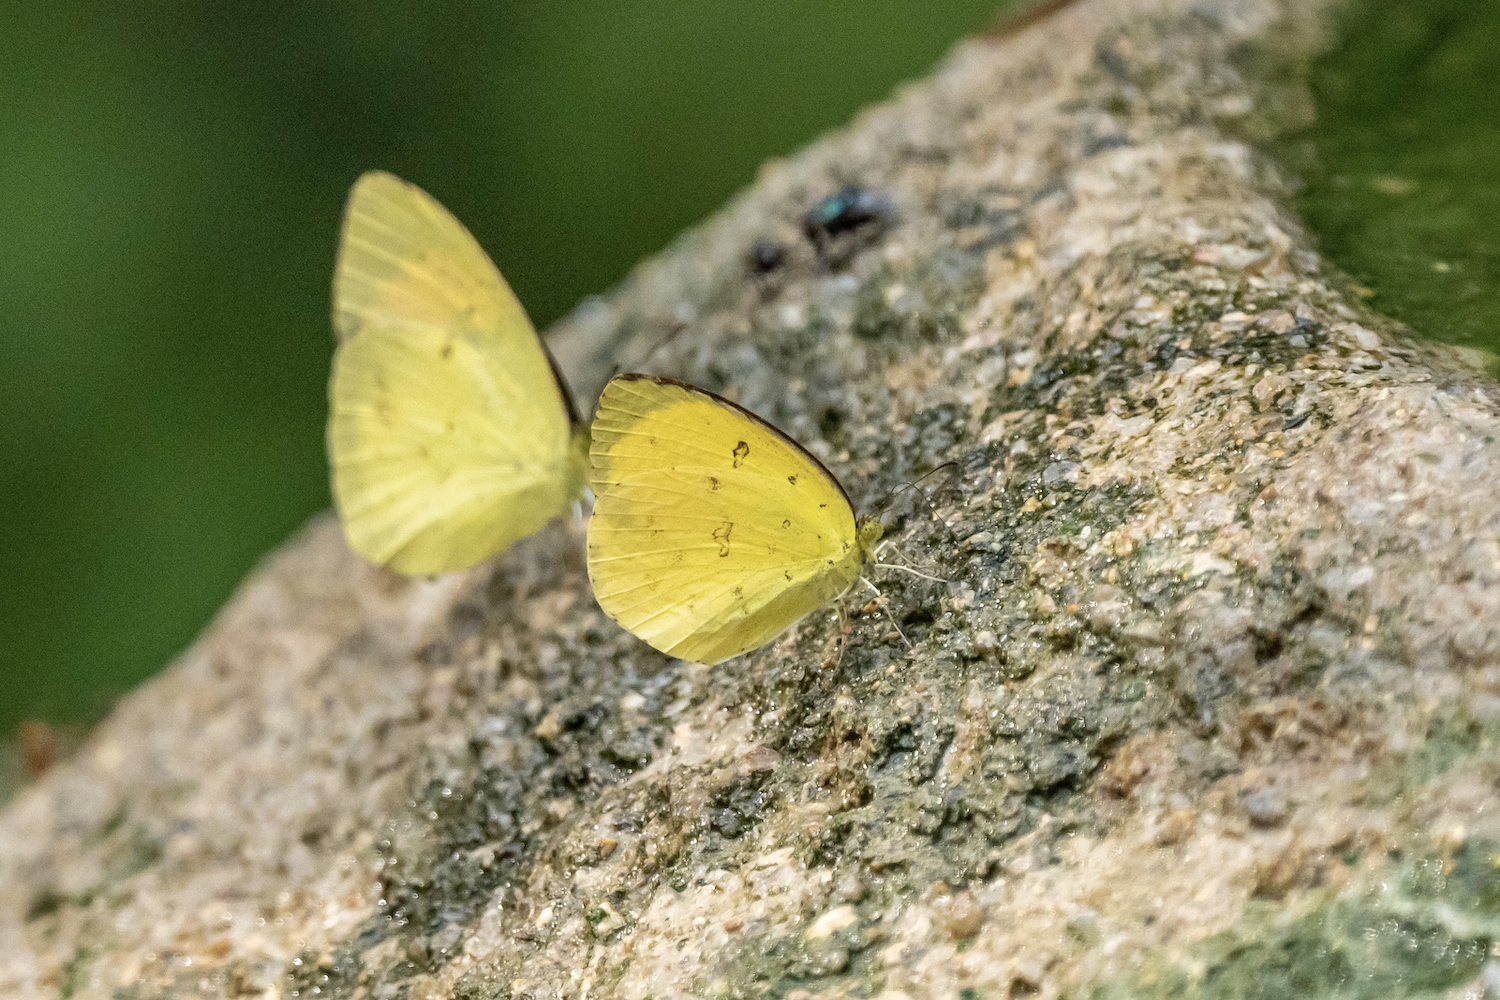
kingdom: Animalia
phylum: Arthropoda
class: Insecta
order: Lepidoptera
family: Pieridae
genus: Eurema
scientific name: Eurema hecabe
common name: Pale grass yellow
